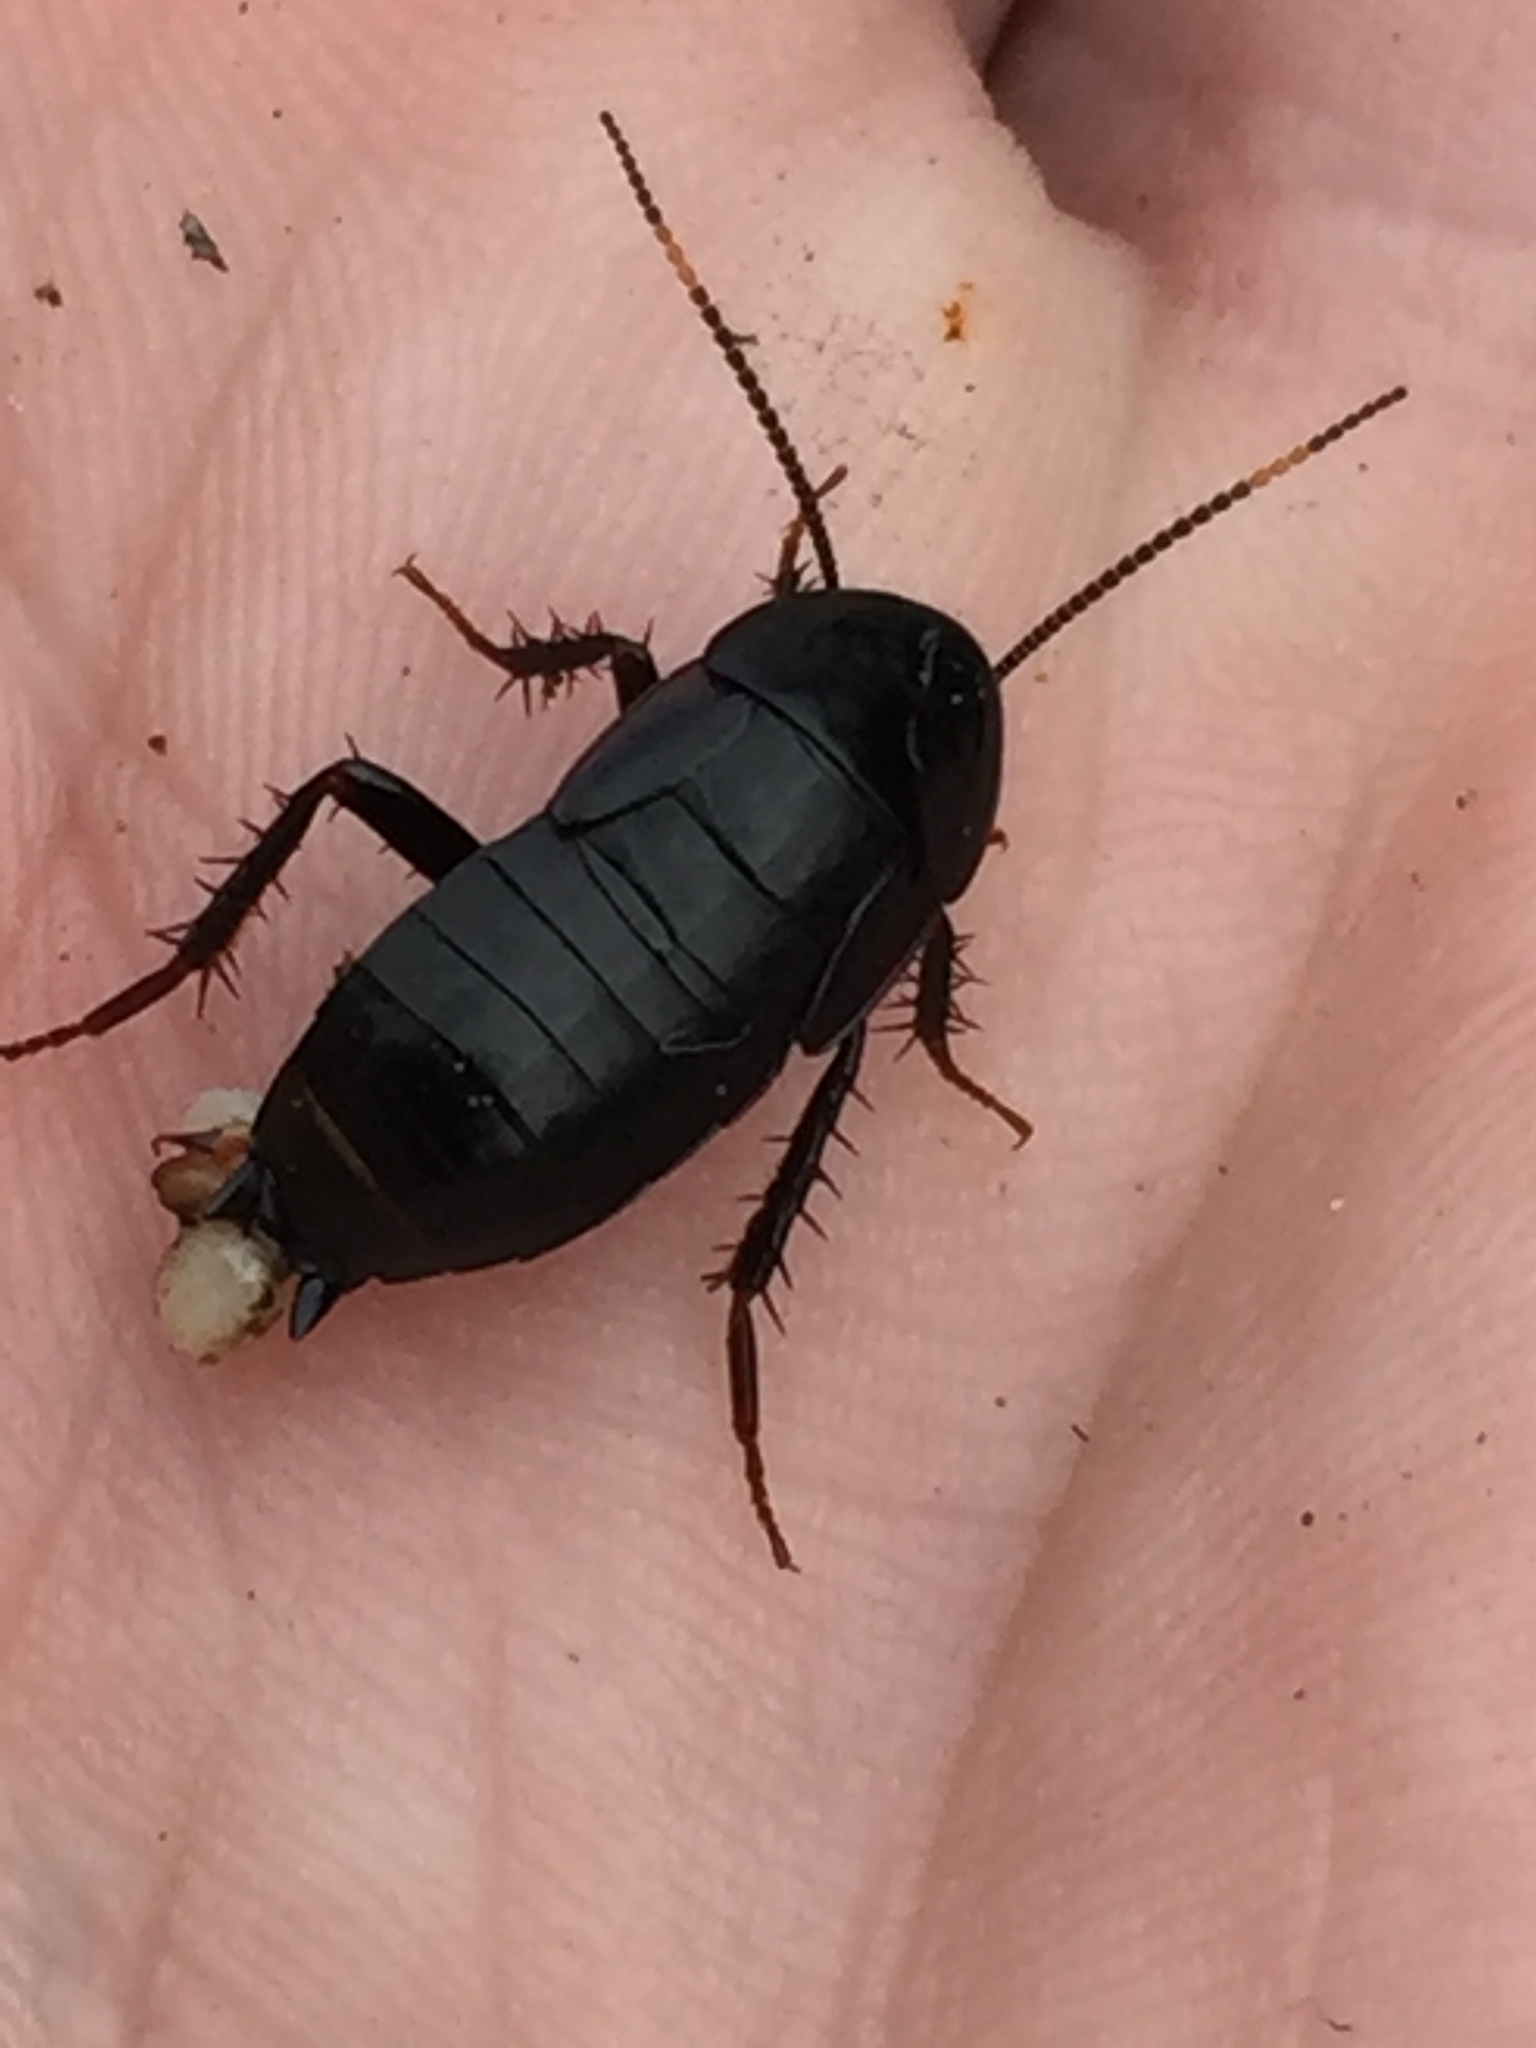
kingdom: Animalia
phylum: Arthropoda
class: Insecta
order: Blattodea
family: Tryonicidae
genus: Tryonicus
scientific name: Tryonicus parvus
